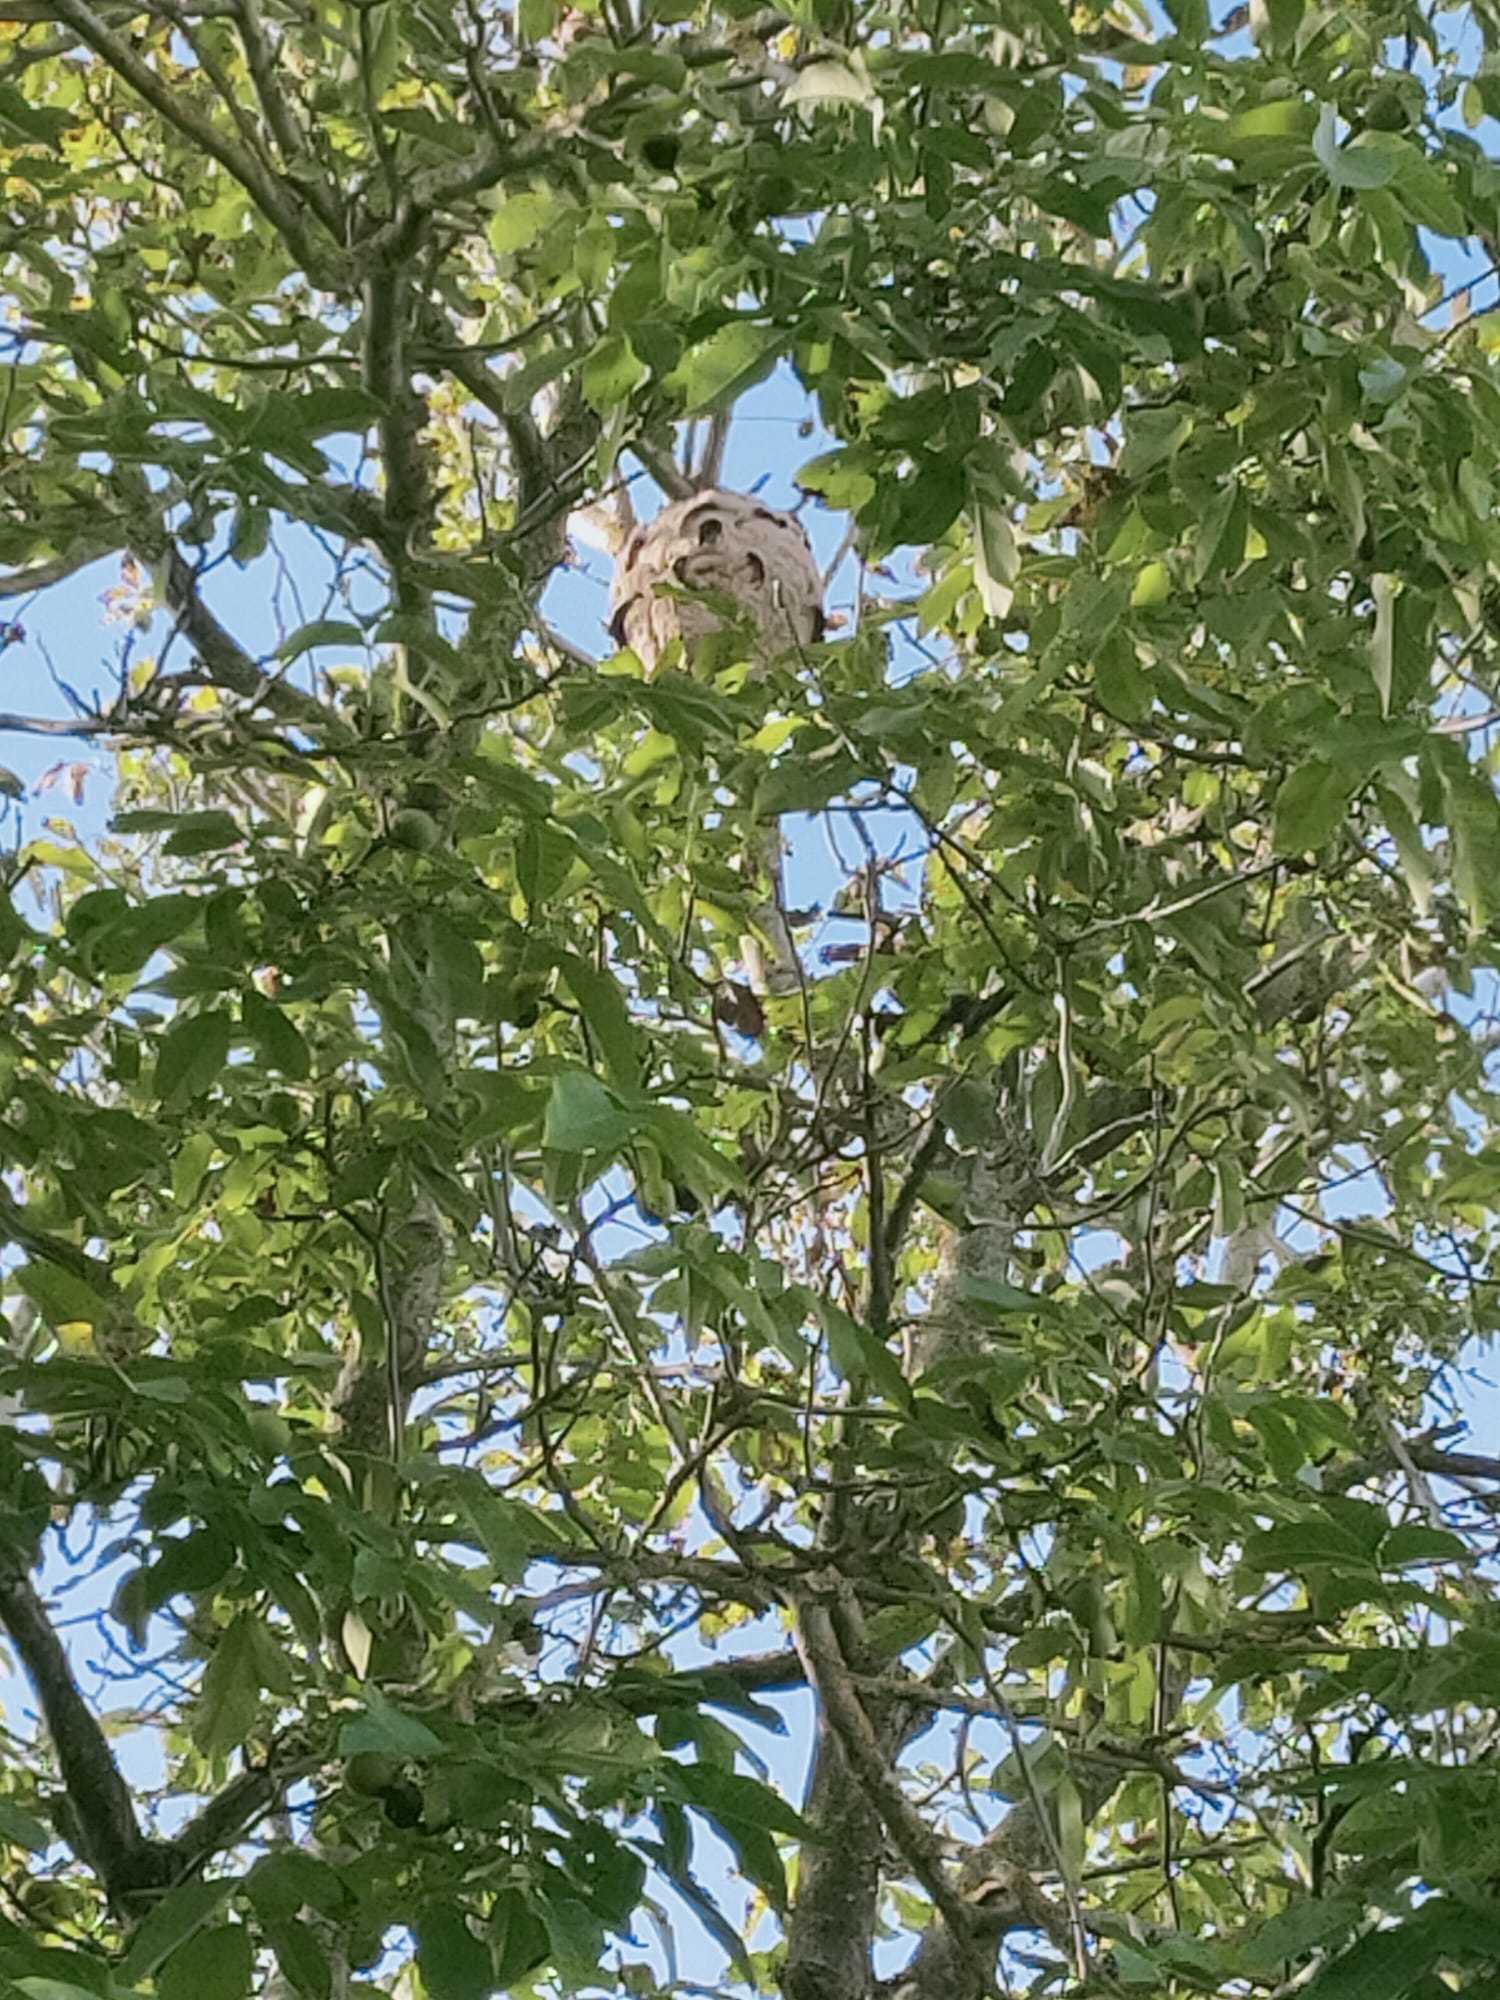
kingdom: Animalia
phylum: Arthropoda
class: Insecta
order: Hymenoptera
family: Vespidae
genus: Vespa
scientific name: Vespa velutina
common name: Asian hornet
